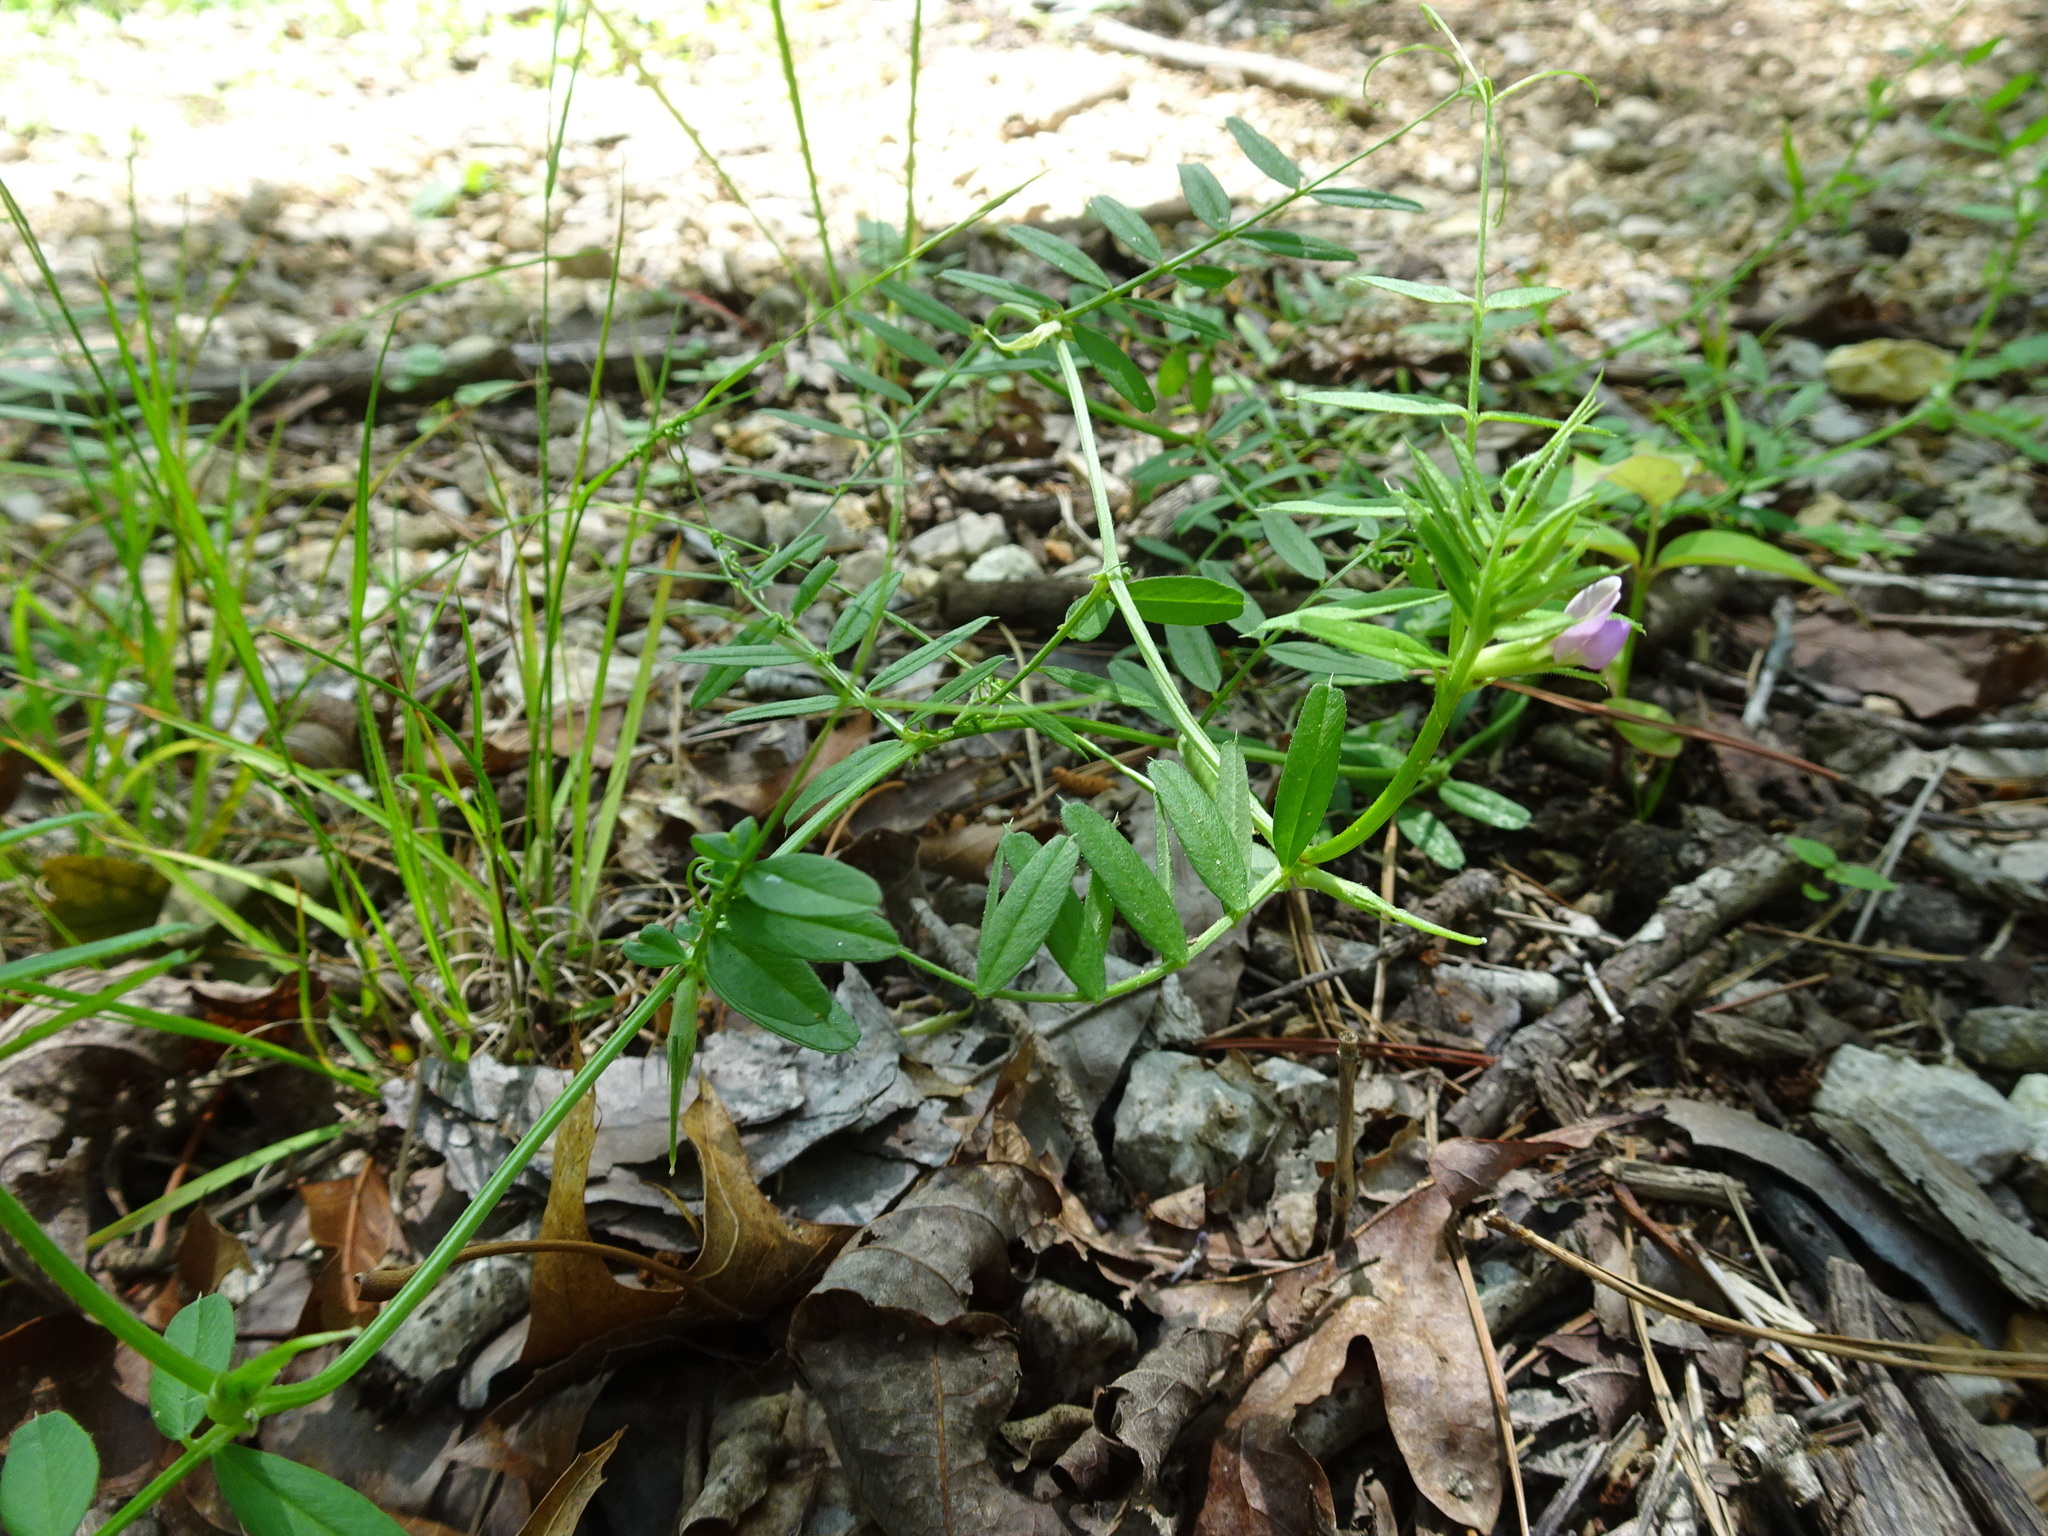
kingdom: Plantae
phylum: Tracheophyta
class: Magnoliopsida
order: Fabales
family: Fabaceae
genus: Vicia
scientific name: Vicia sativa
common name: Garden vetch
